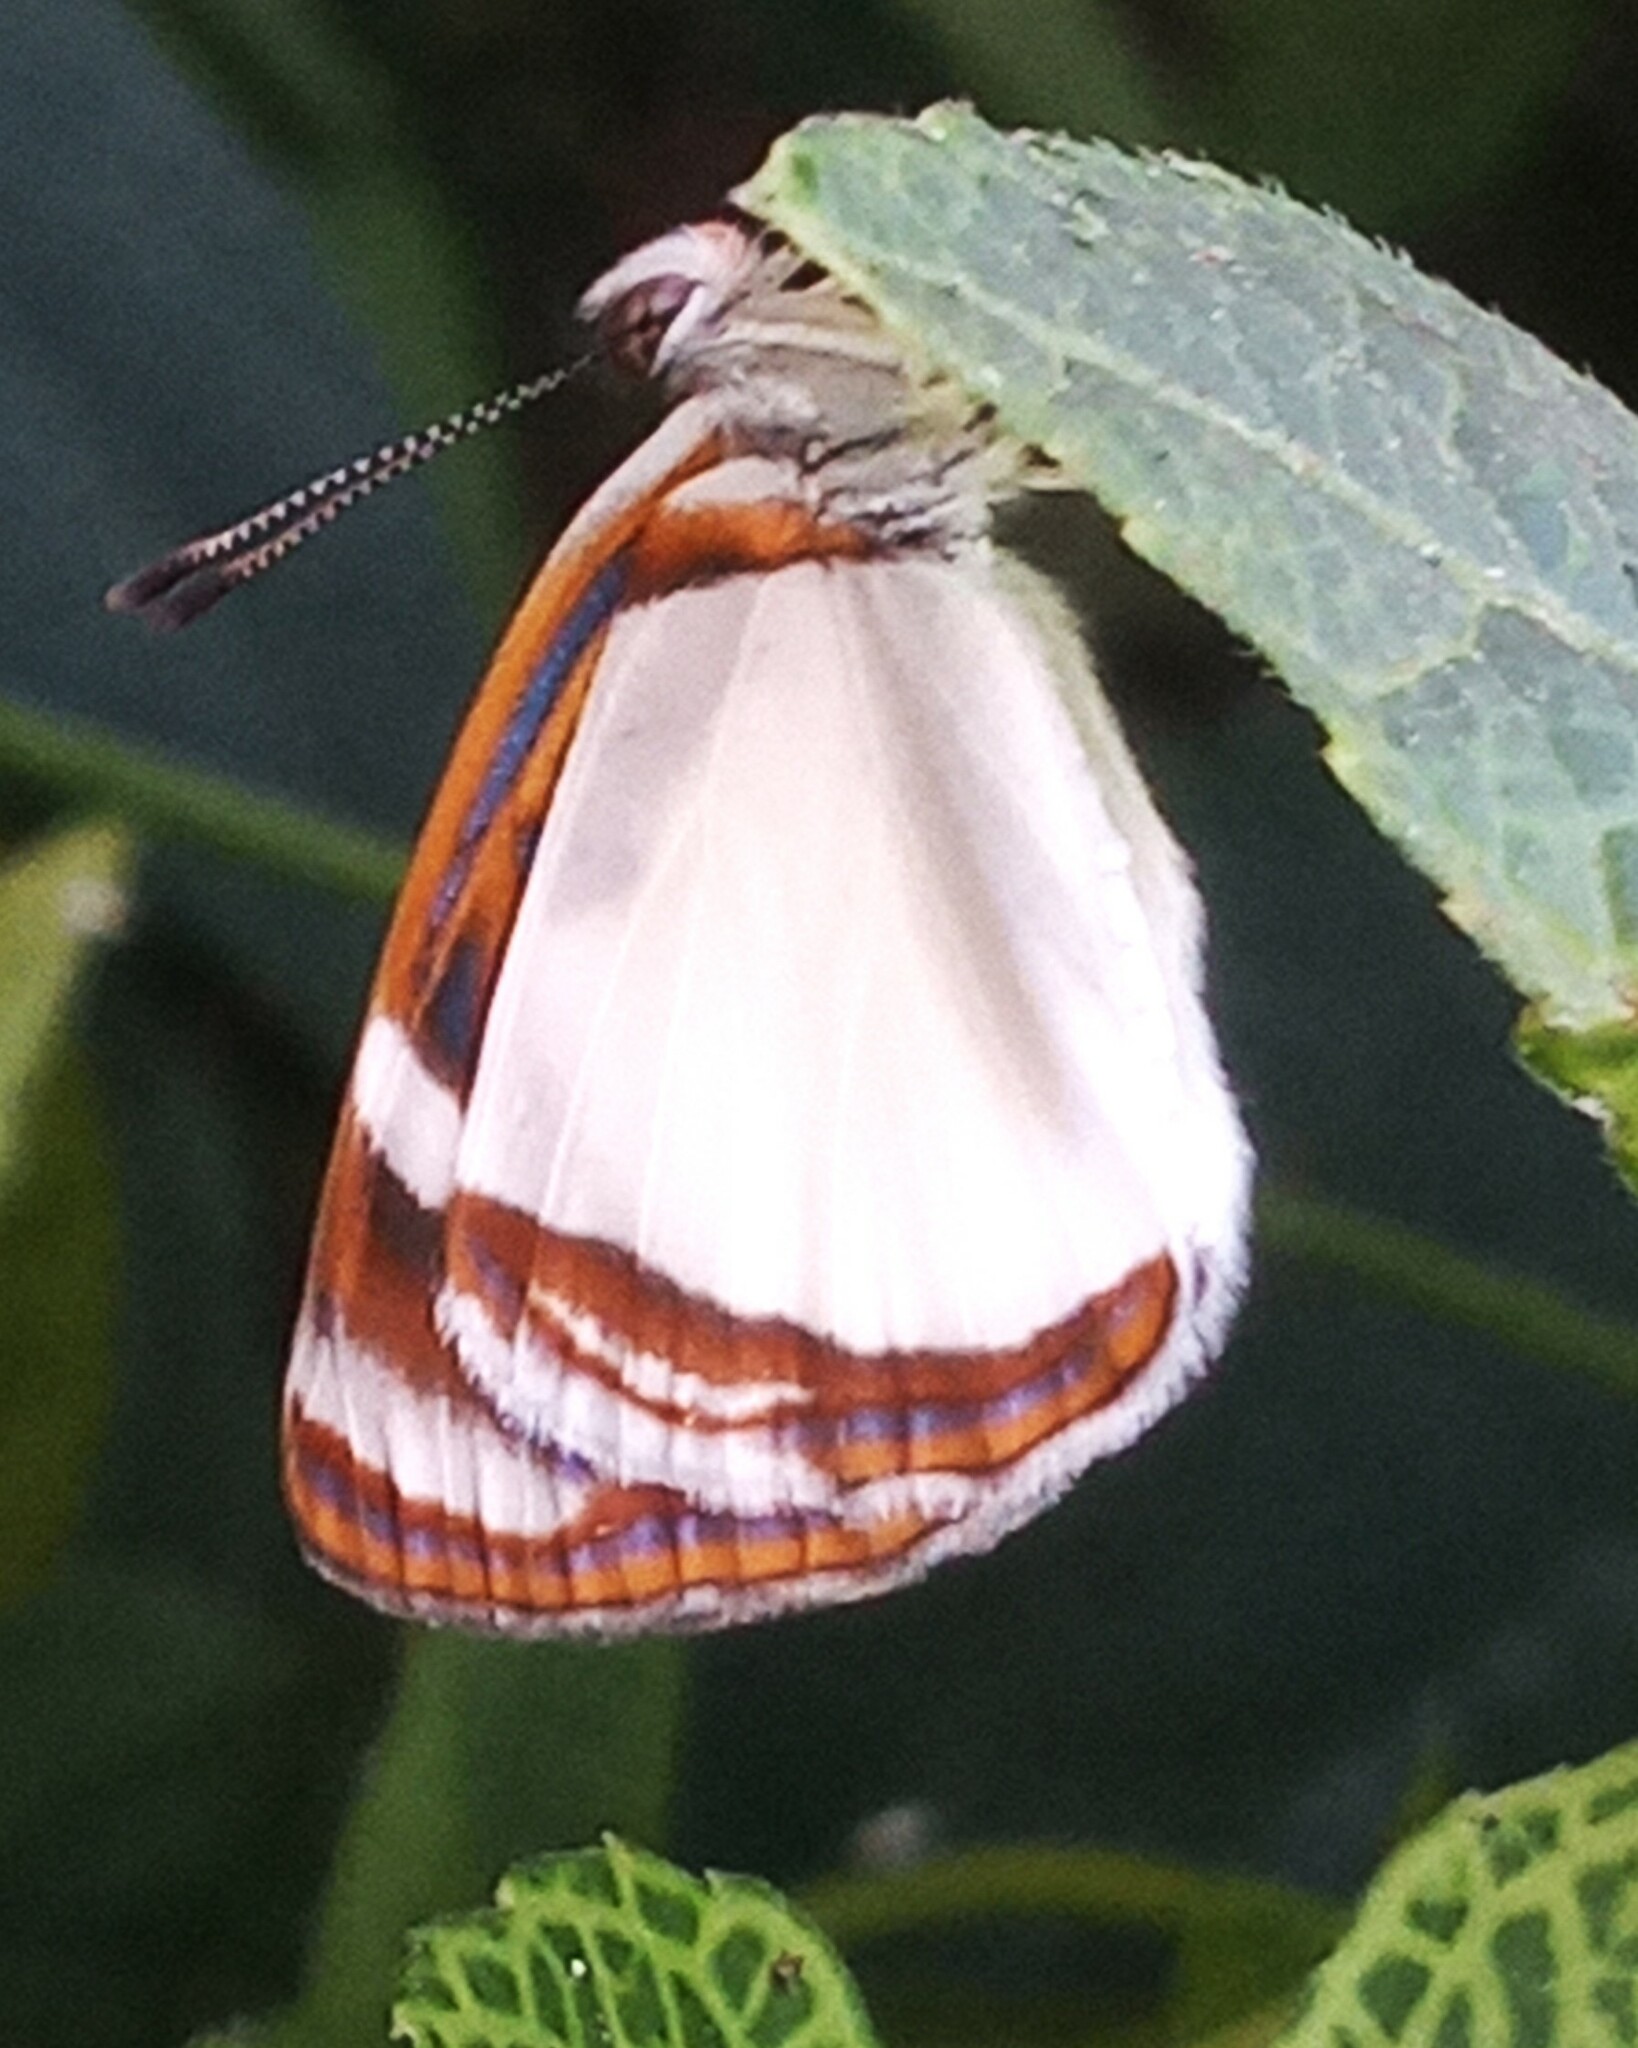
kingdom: Animalia
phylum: Arthropoda
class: Insecta
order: Lepidoptera
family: Nymphalidae
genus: Dynamine
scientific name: Dynamine agacles
